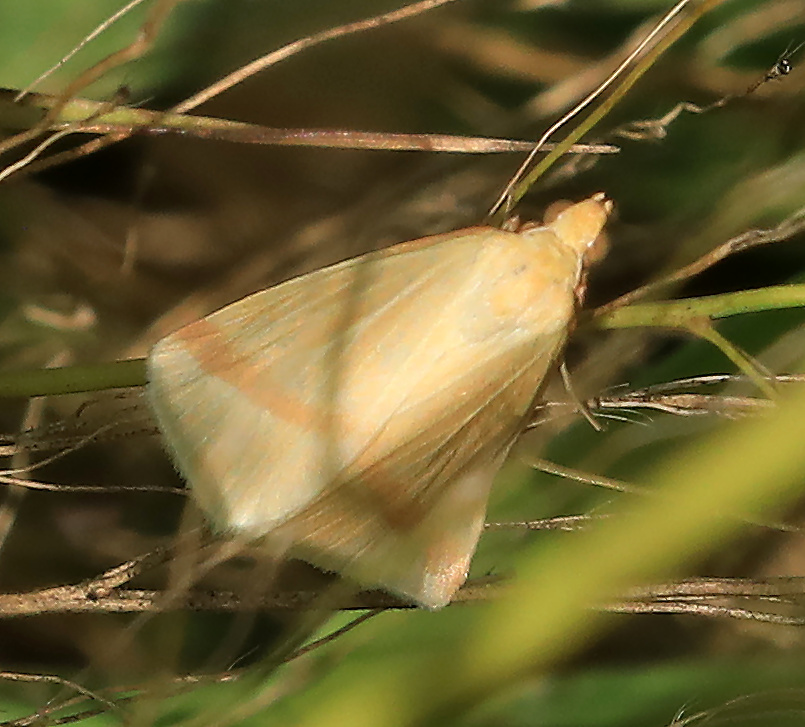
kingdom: Animalia
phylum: Arthropoda
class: Insecta
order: Lepidoptera
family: Geometridae
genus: Rhodometra
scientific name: Rhodometra sacraria
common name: Vestal
